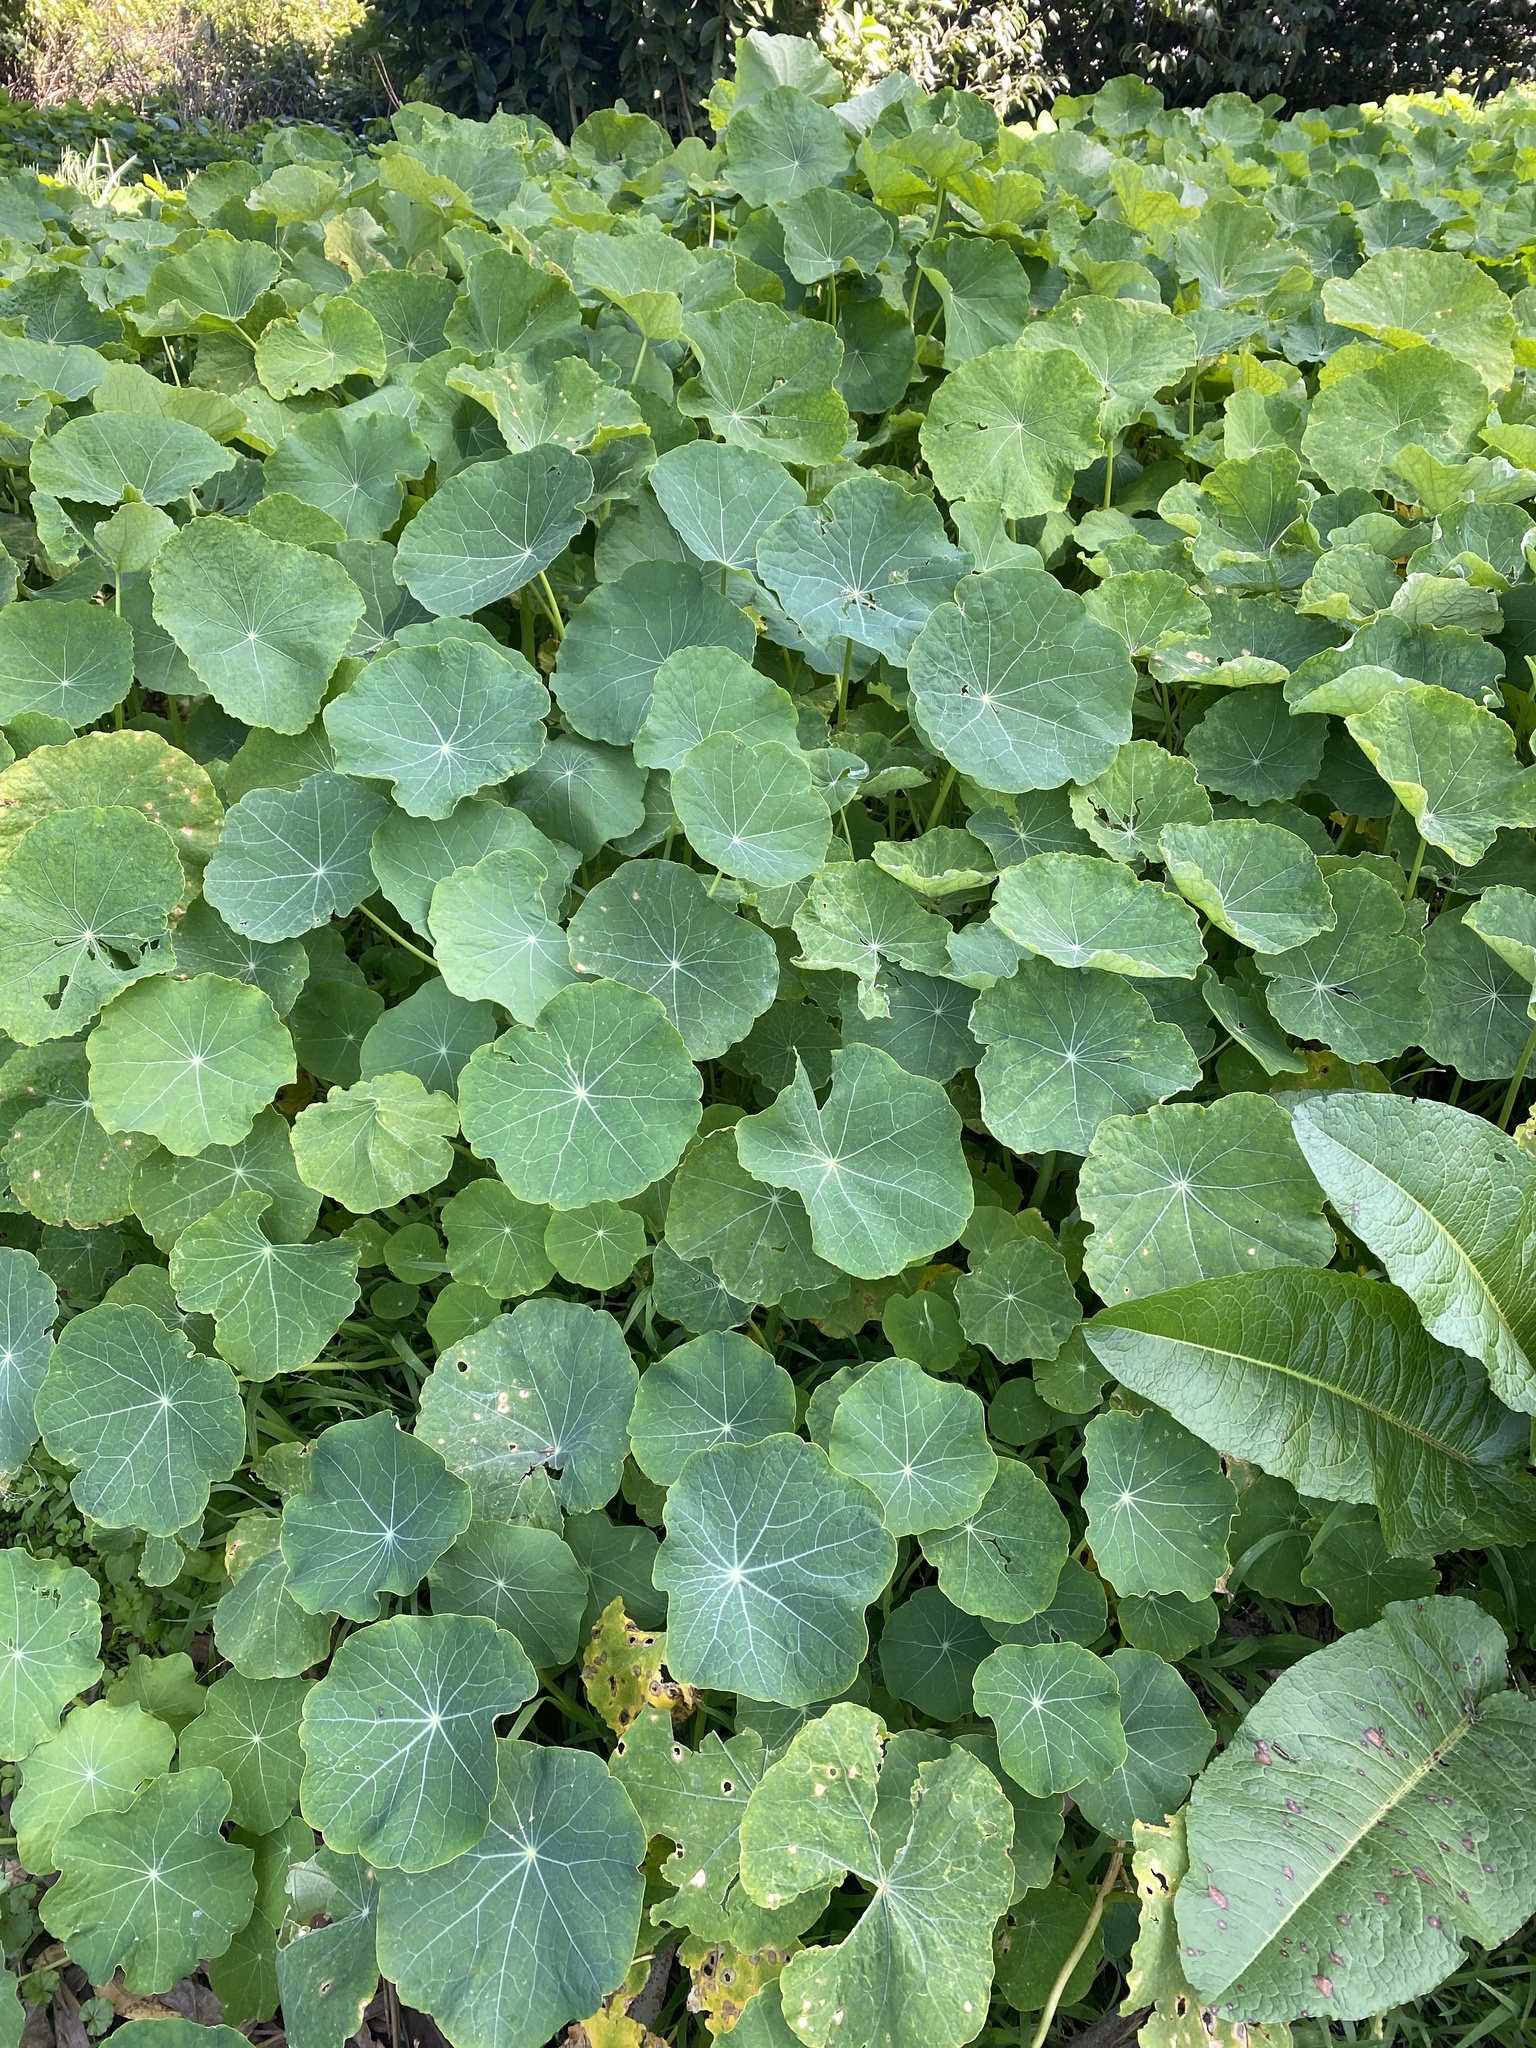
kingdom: Plantae
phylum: Tracheophyta
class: Magnoliopsida
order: Brassicales
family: Tropaeolaceae
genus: Tropaeolum
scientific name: Tropaeolum majus
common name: Nasturtium
